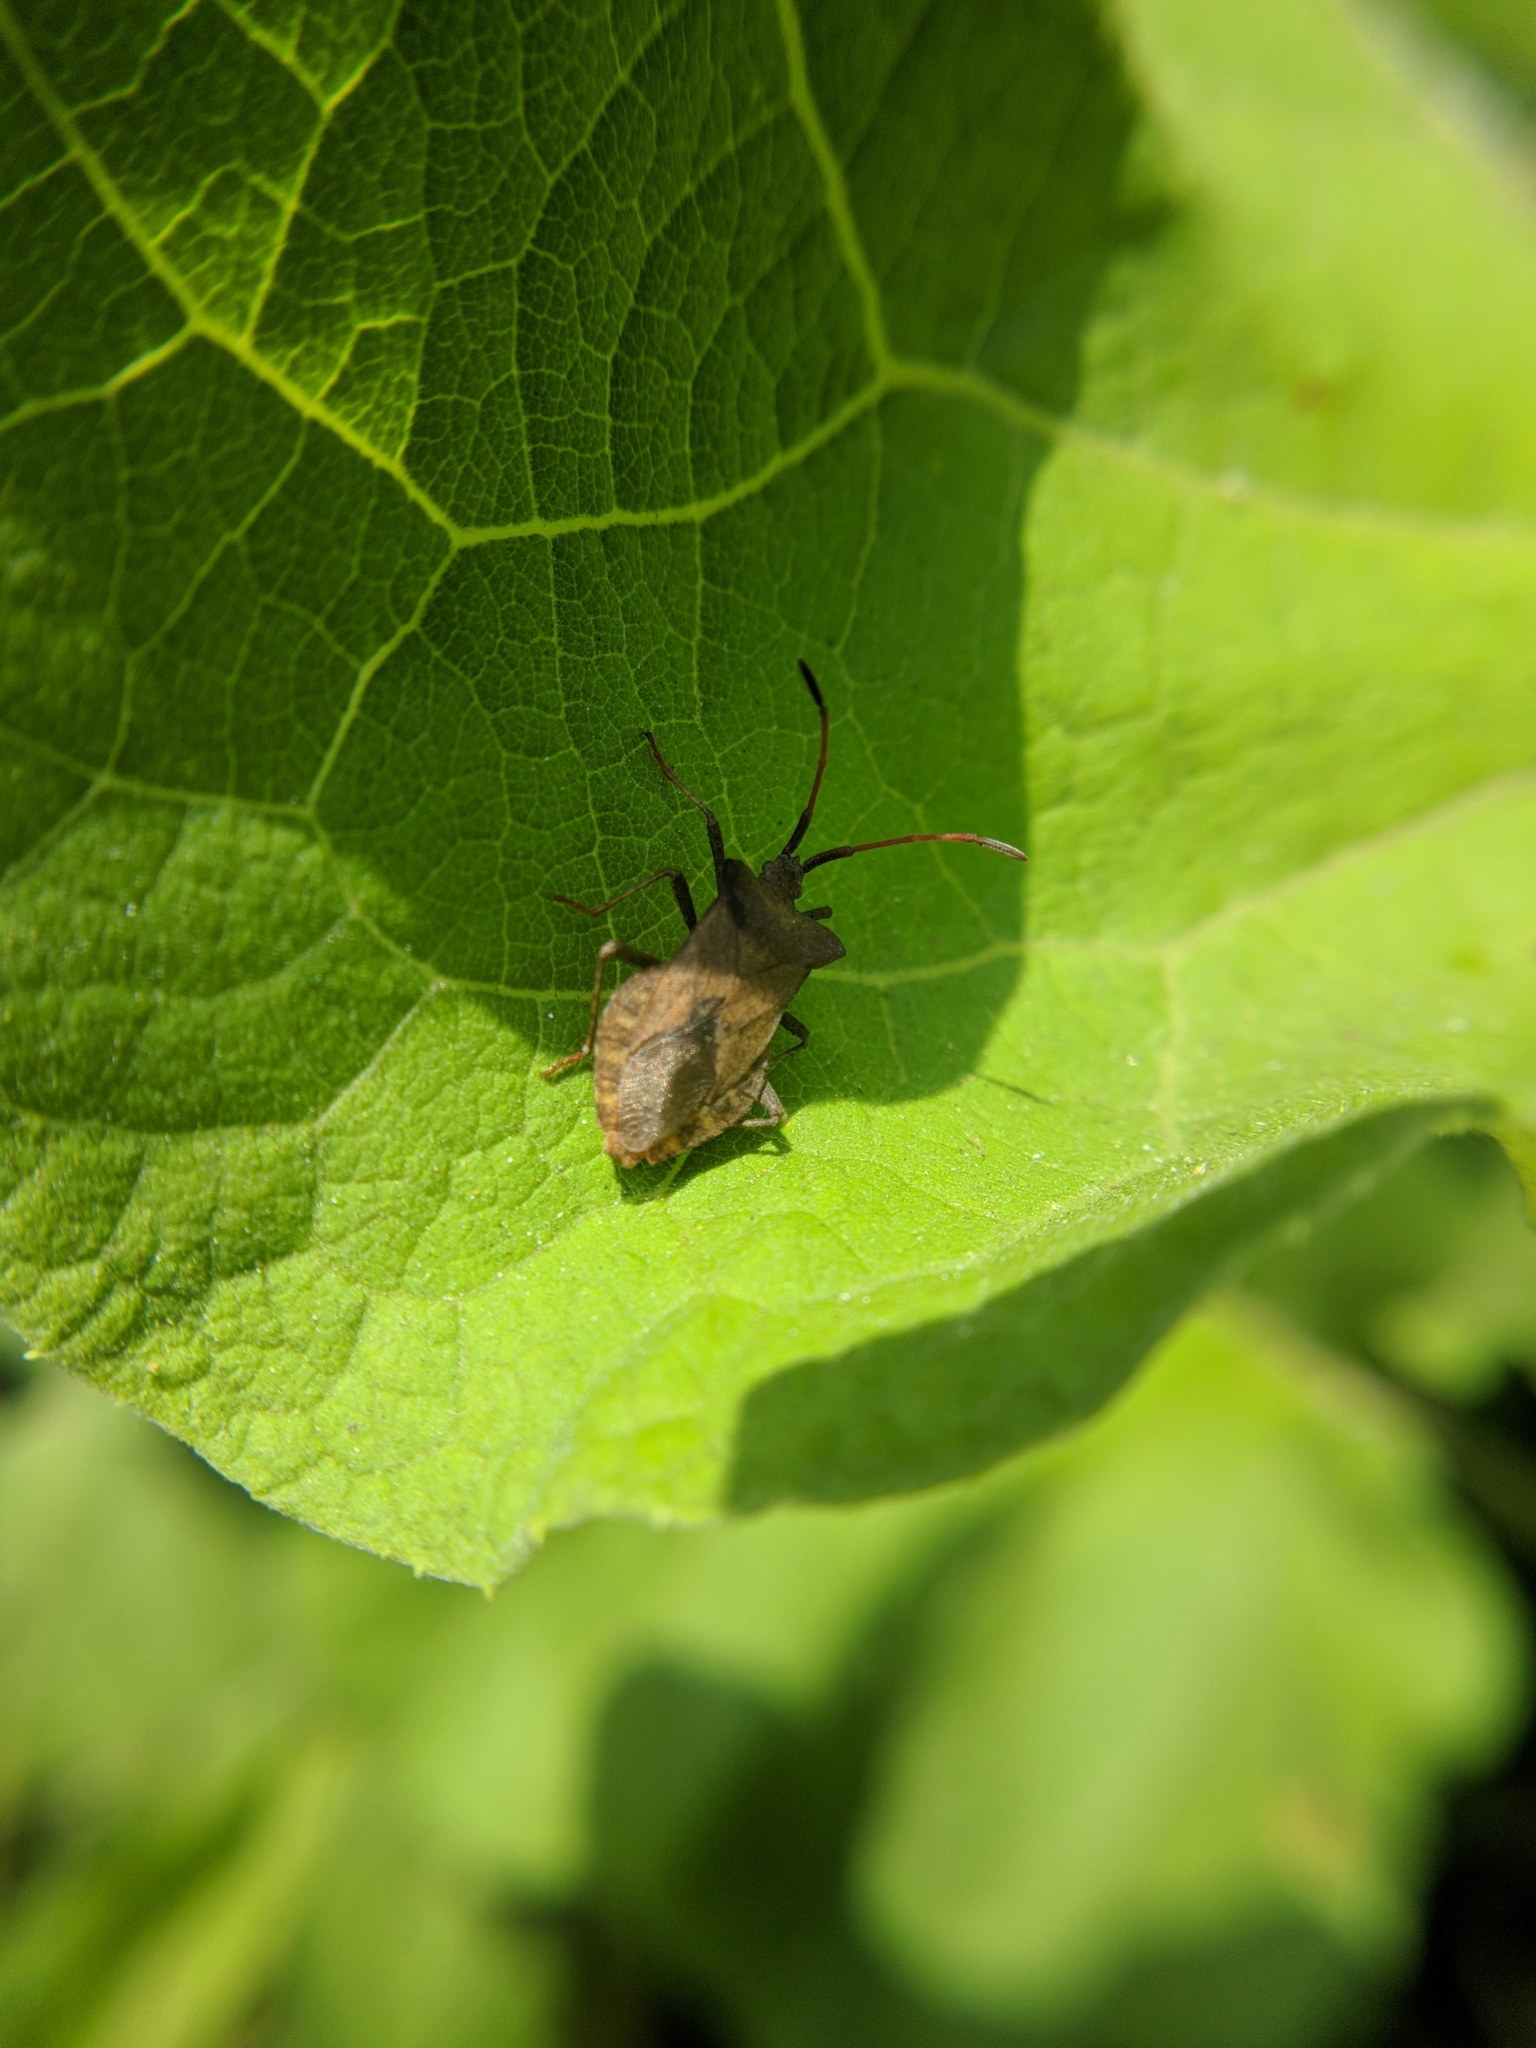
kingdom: Animalia
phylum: Arthropoda
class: Insecta
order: Hemiptera
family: Coreidae
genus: Coreus
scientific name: Coreus marginatus
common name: Dock bug
